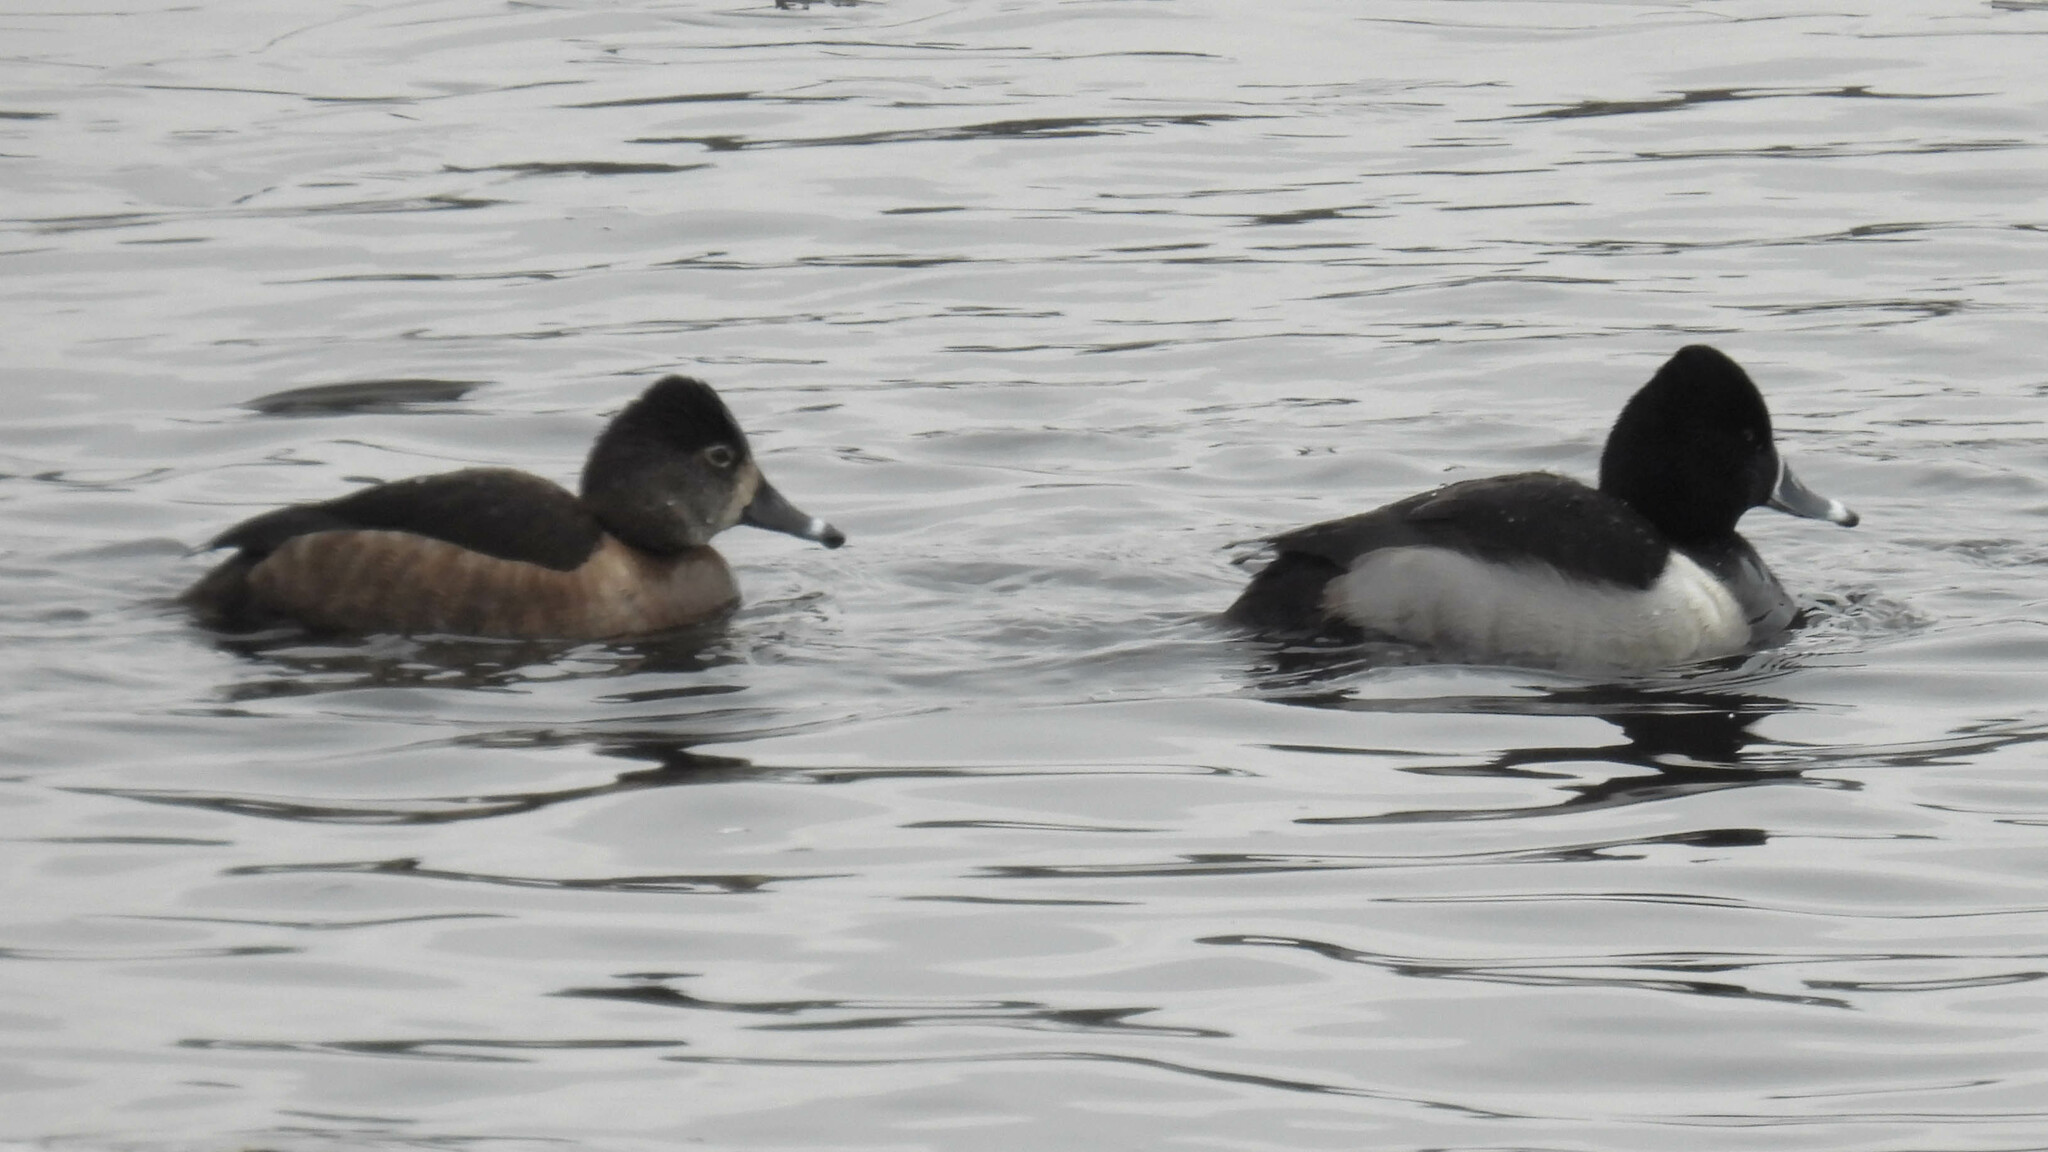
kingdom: Animalia
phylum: Chordata
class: Aves
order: Anseriformes
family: Anatidae
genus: Aythya
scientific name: Aythya collaris
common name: Ring-necked duck
